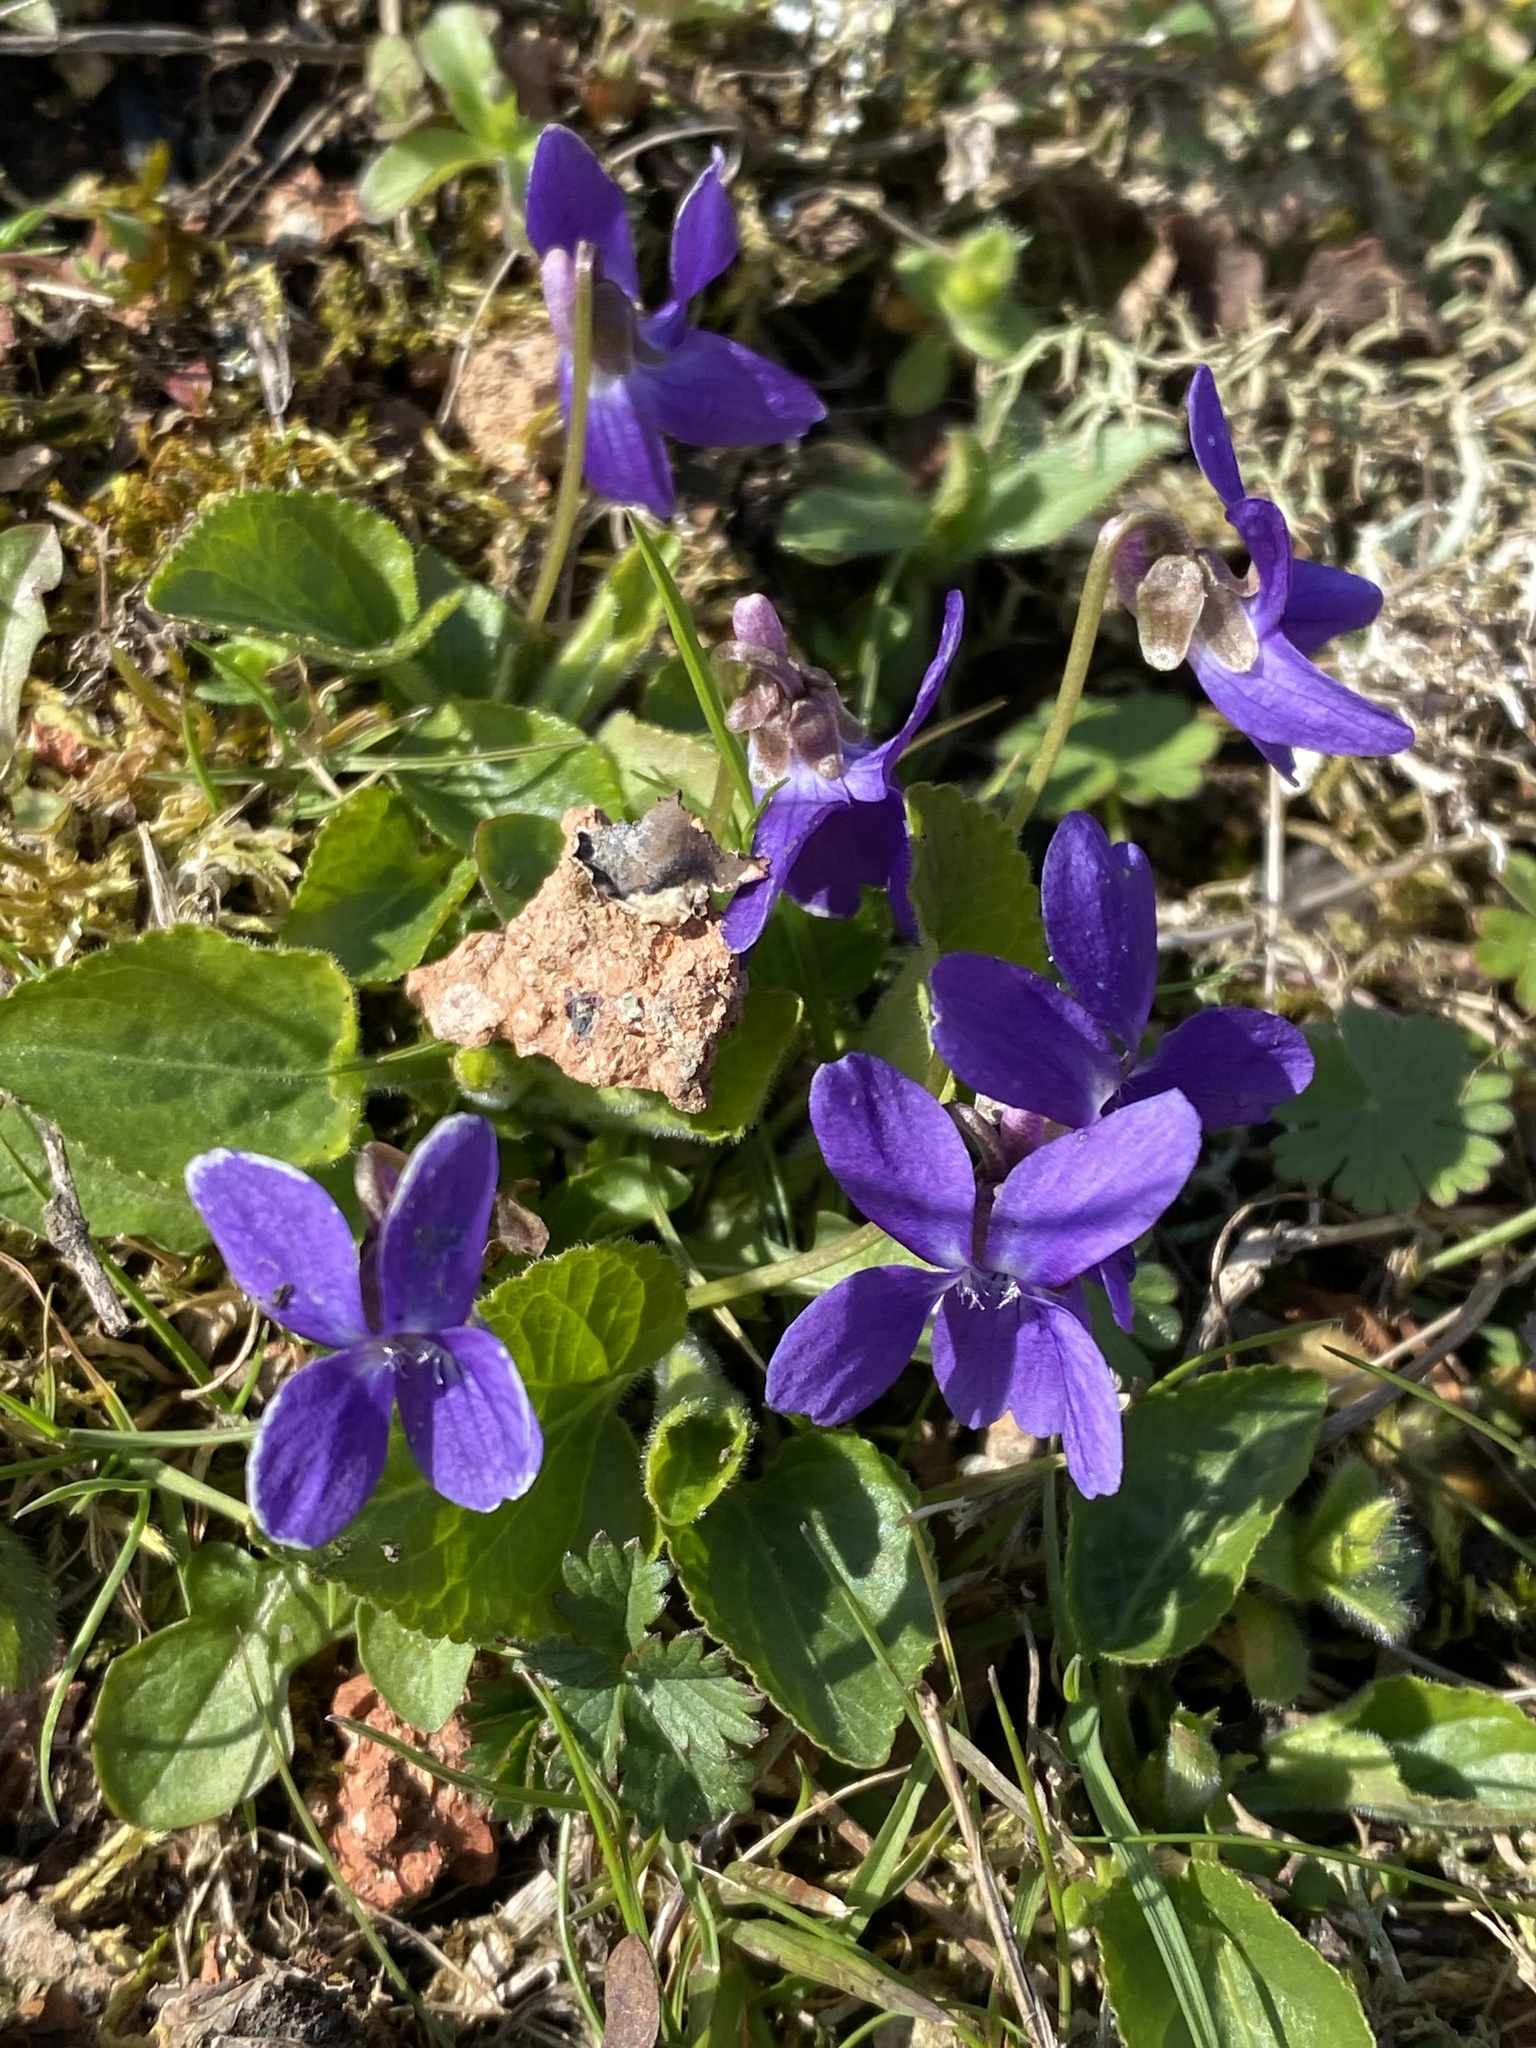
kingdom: Plantae
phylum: Tracheophyta
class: Magnoliopsida
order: Malpighiales
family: Violaceae
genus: Viola
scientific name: Viola odorata
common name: Sweet violet
